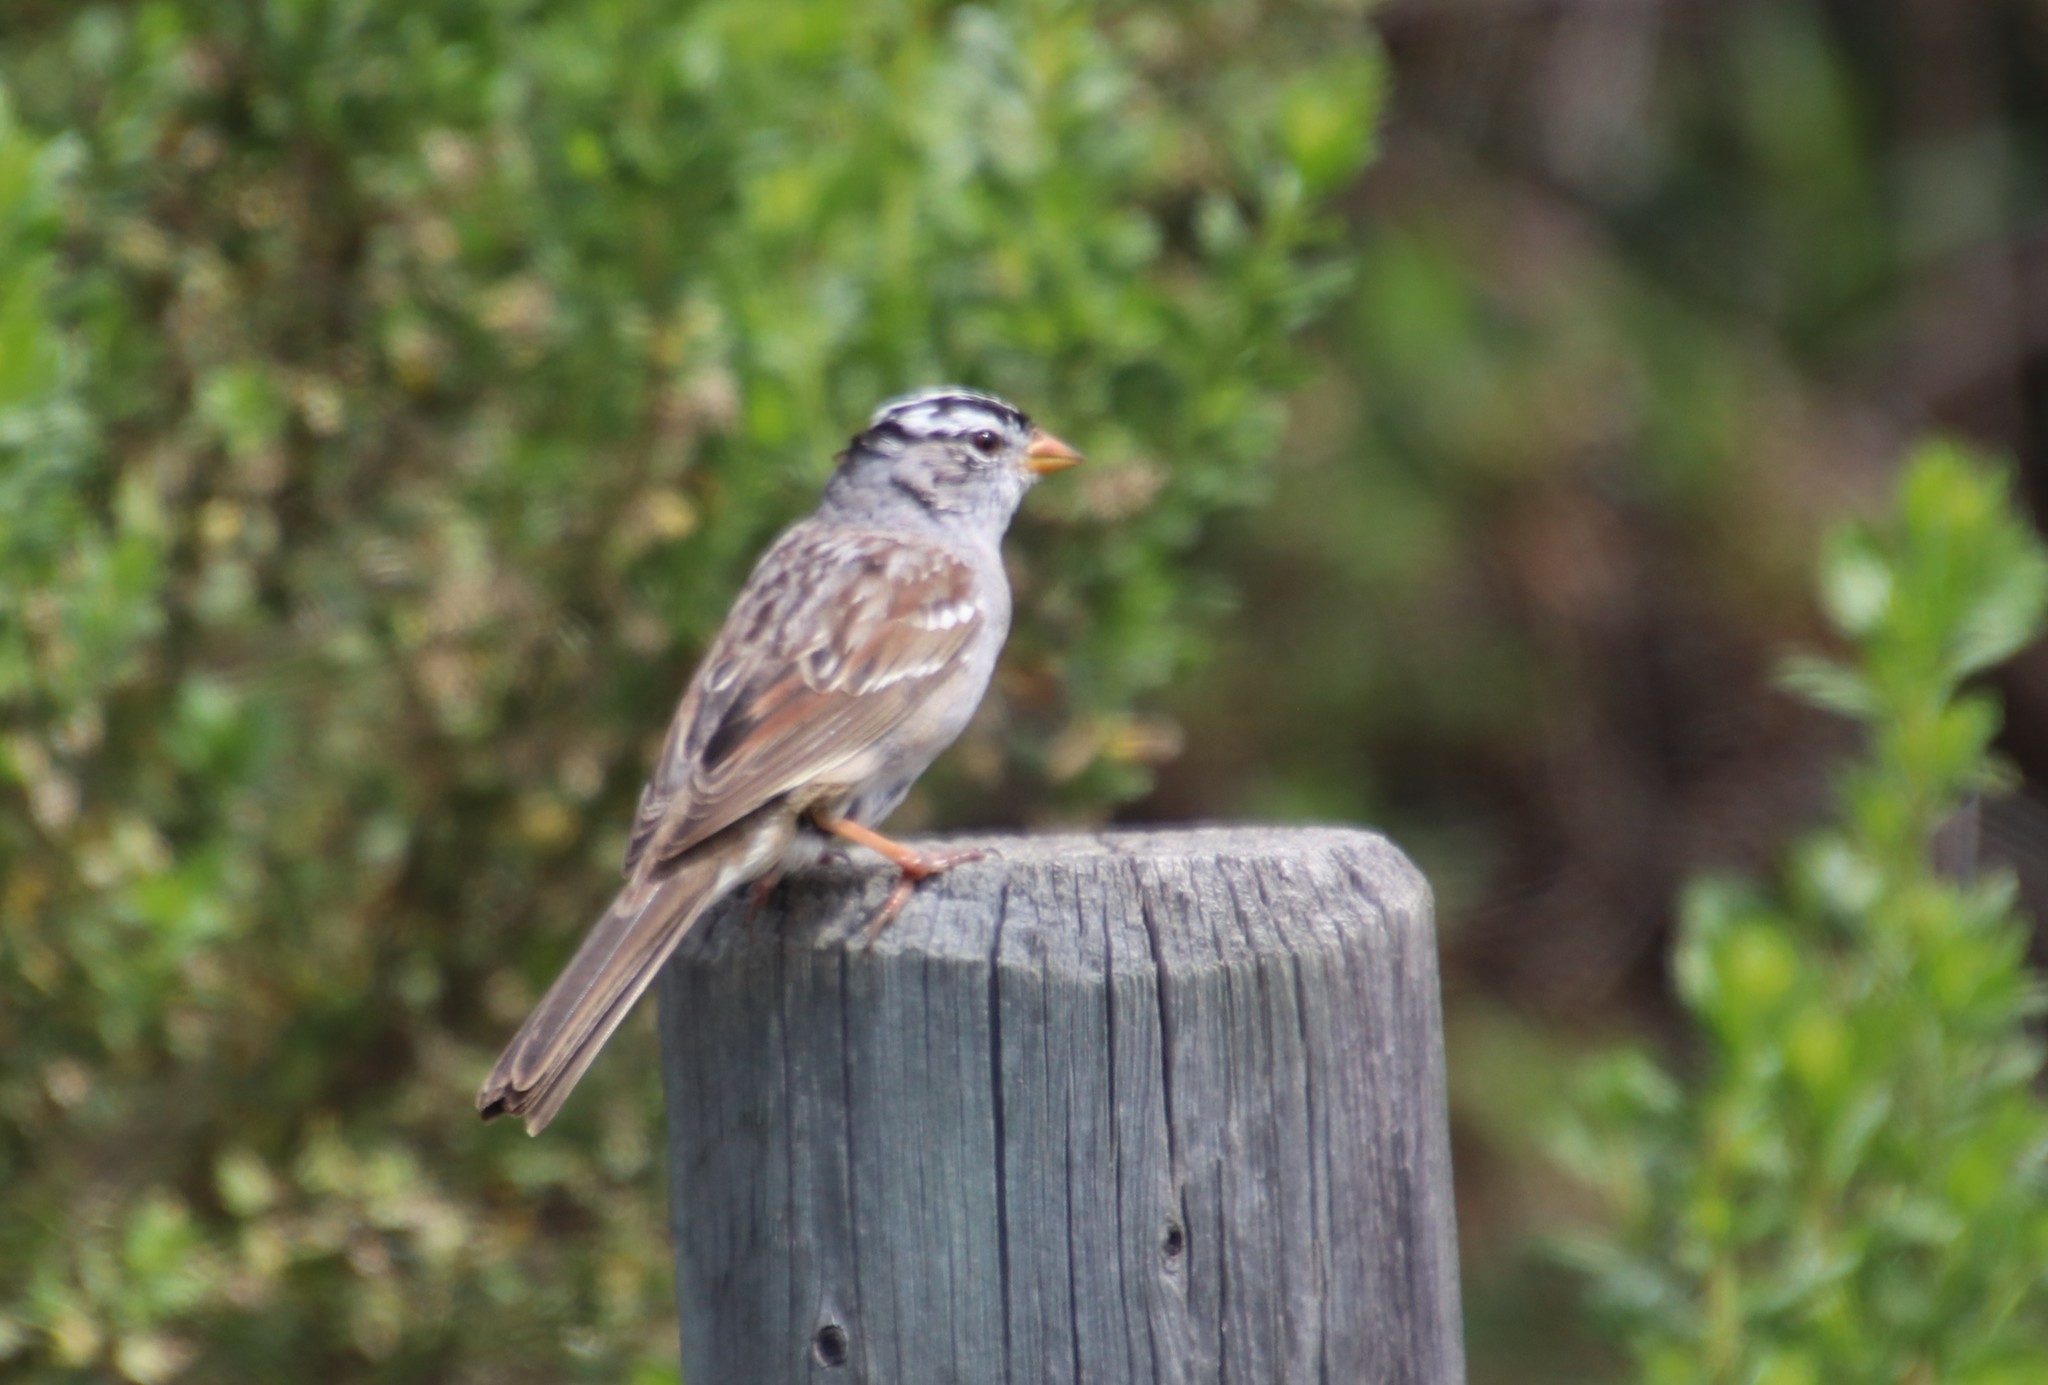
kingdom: Animalia
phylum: Chordata
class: Aves
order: Passeriformes
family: Passerellidae
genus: Zonotrichia
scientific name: Zonotrichia leucophrys
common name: White-crowned sparrow
